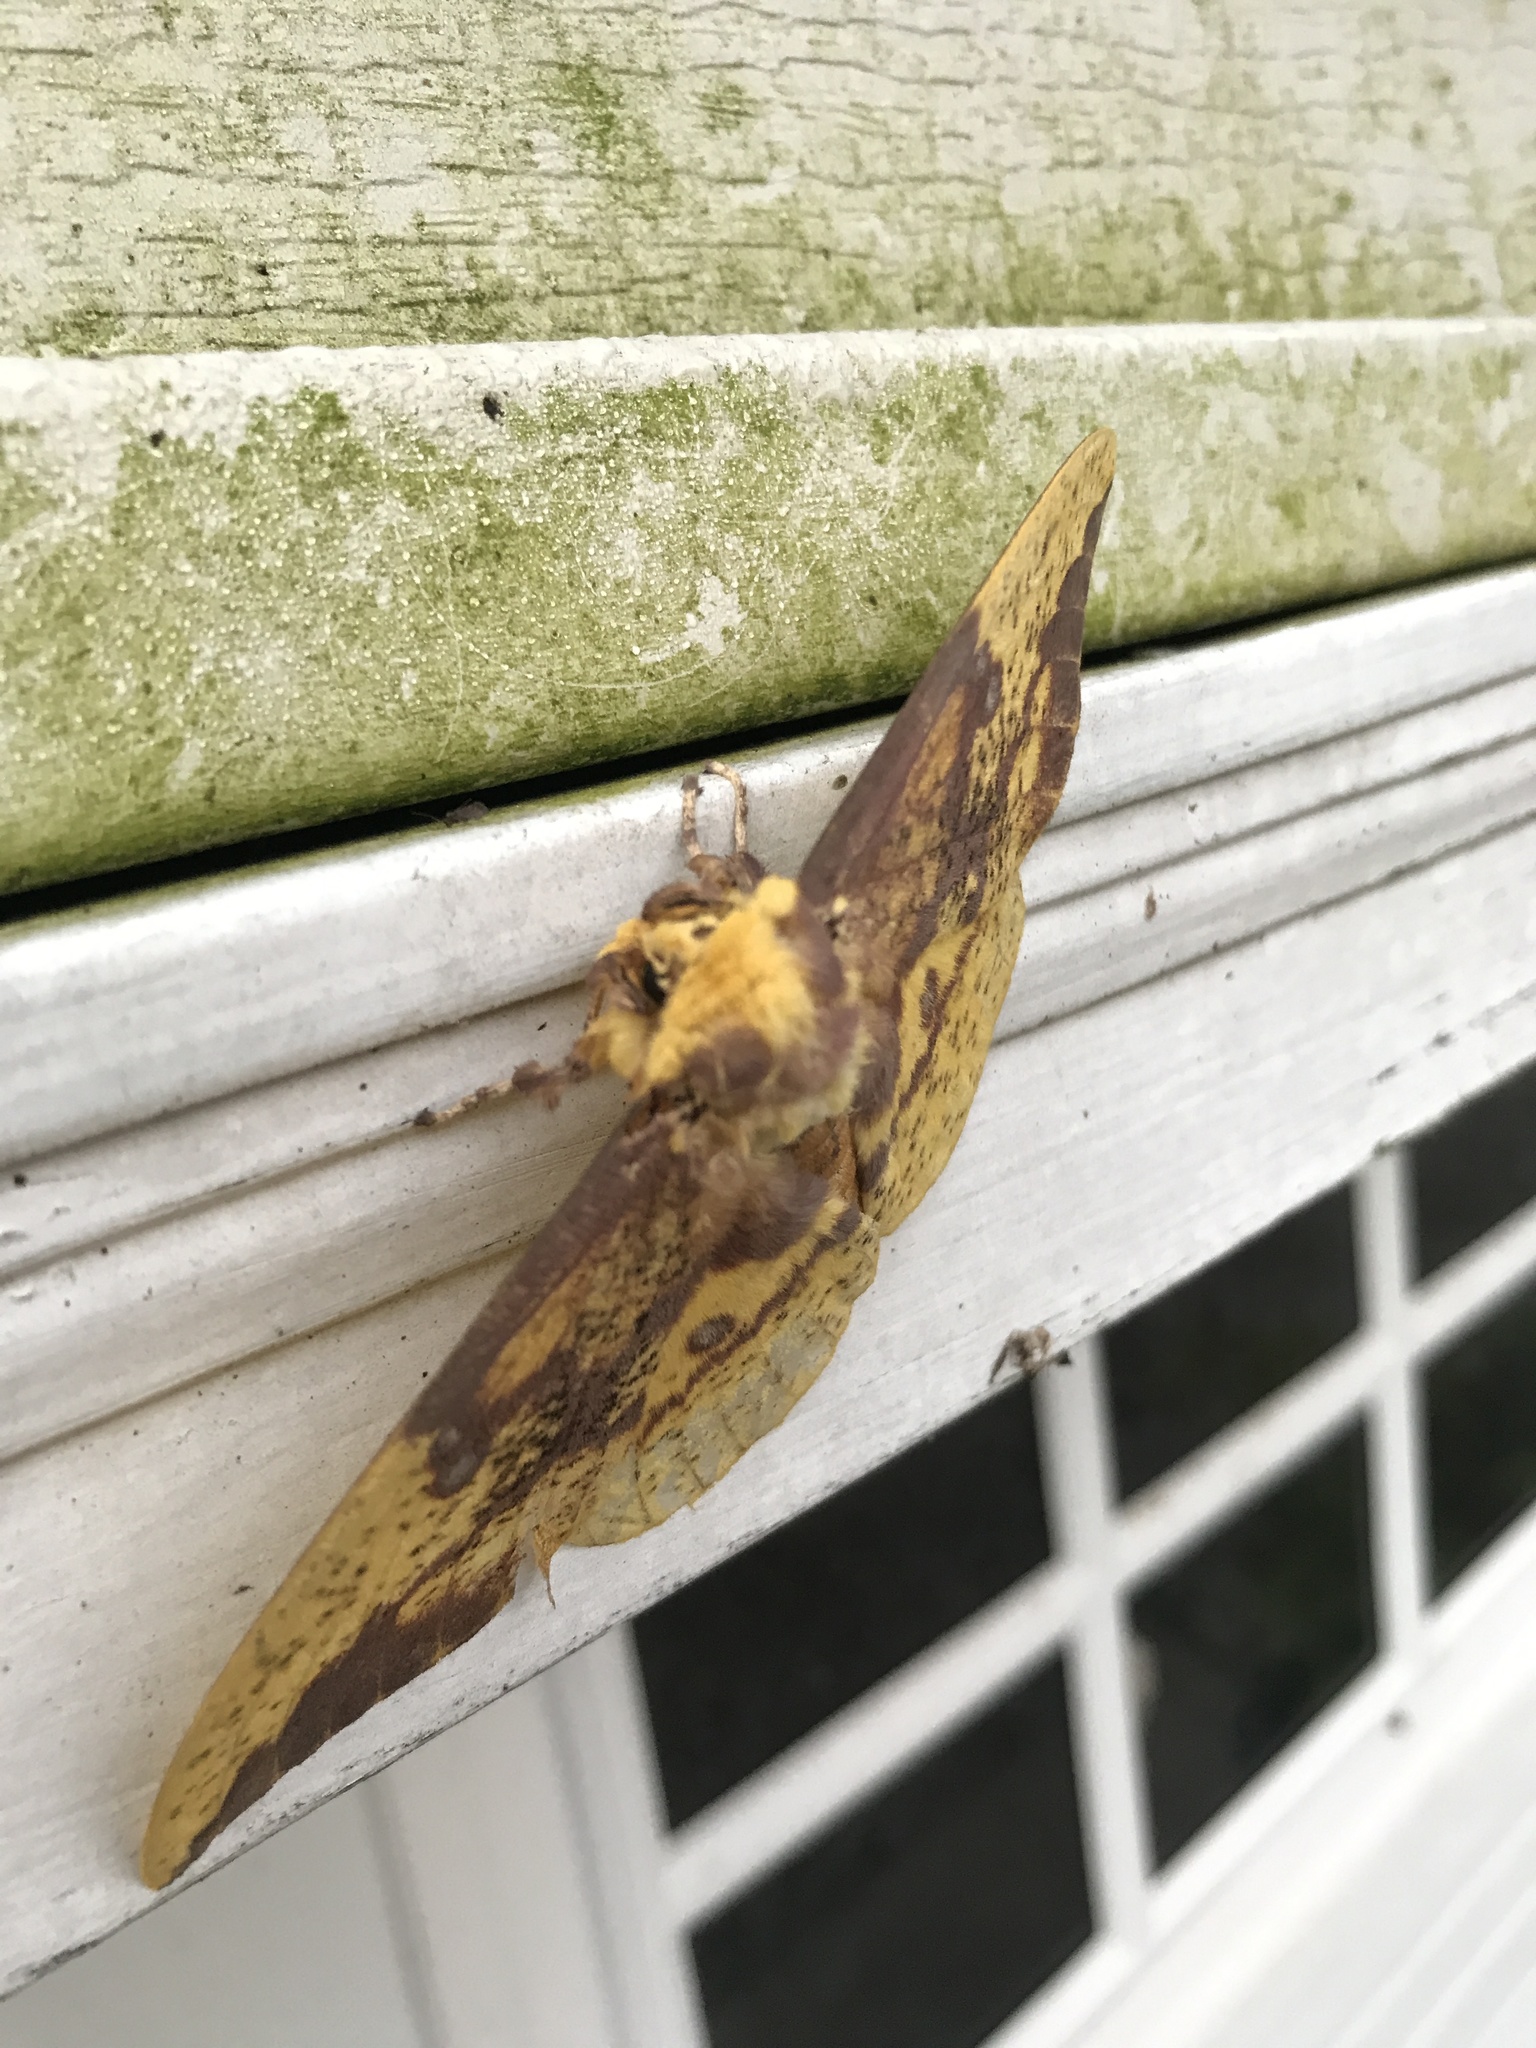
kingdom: Animalia
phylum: Arthropoda
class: Insecta
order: Lepidoptera
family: Saturniidae
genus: Eacles
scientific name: Eacles imperialis
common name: Imperial moth
